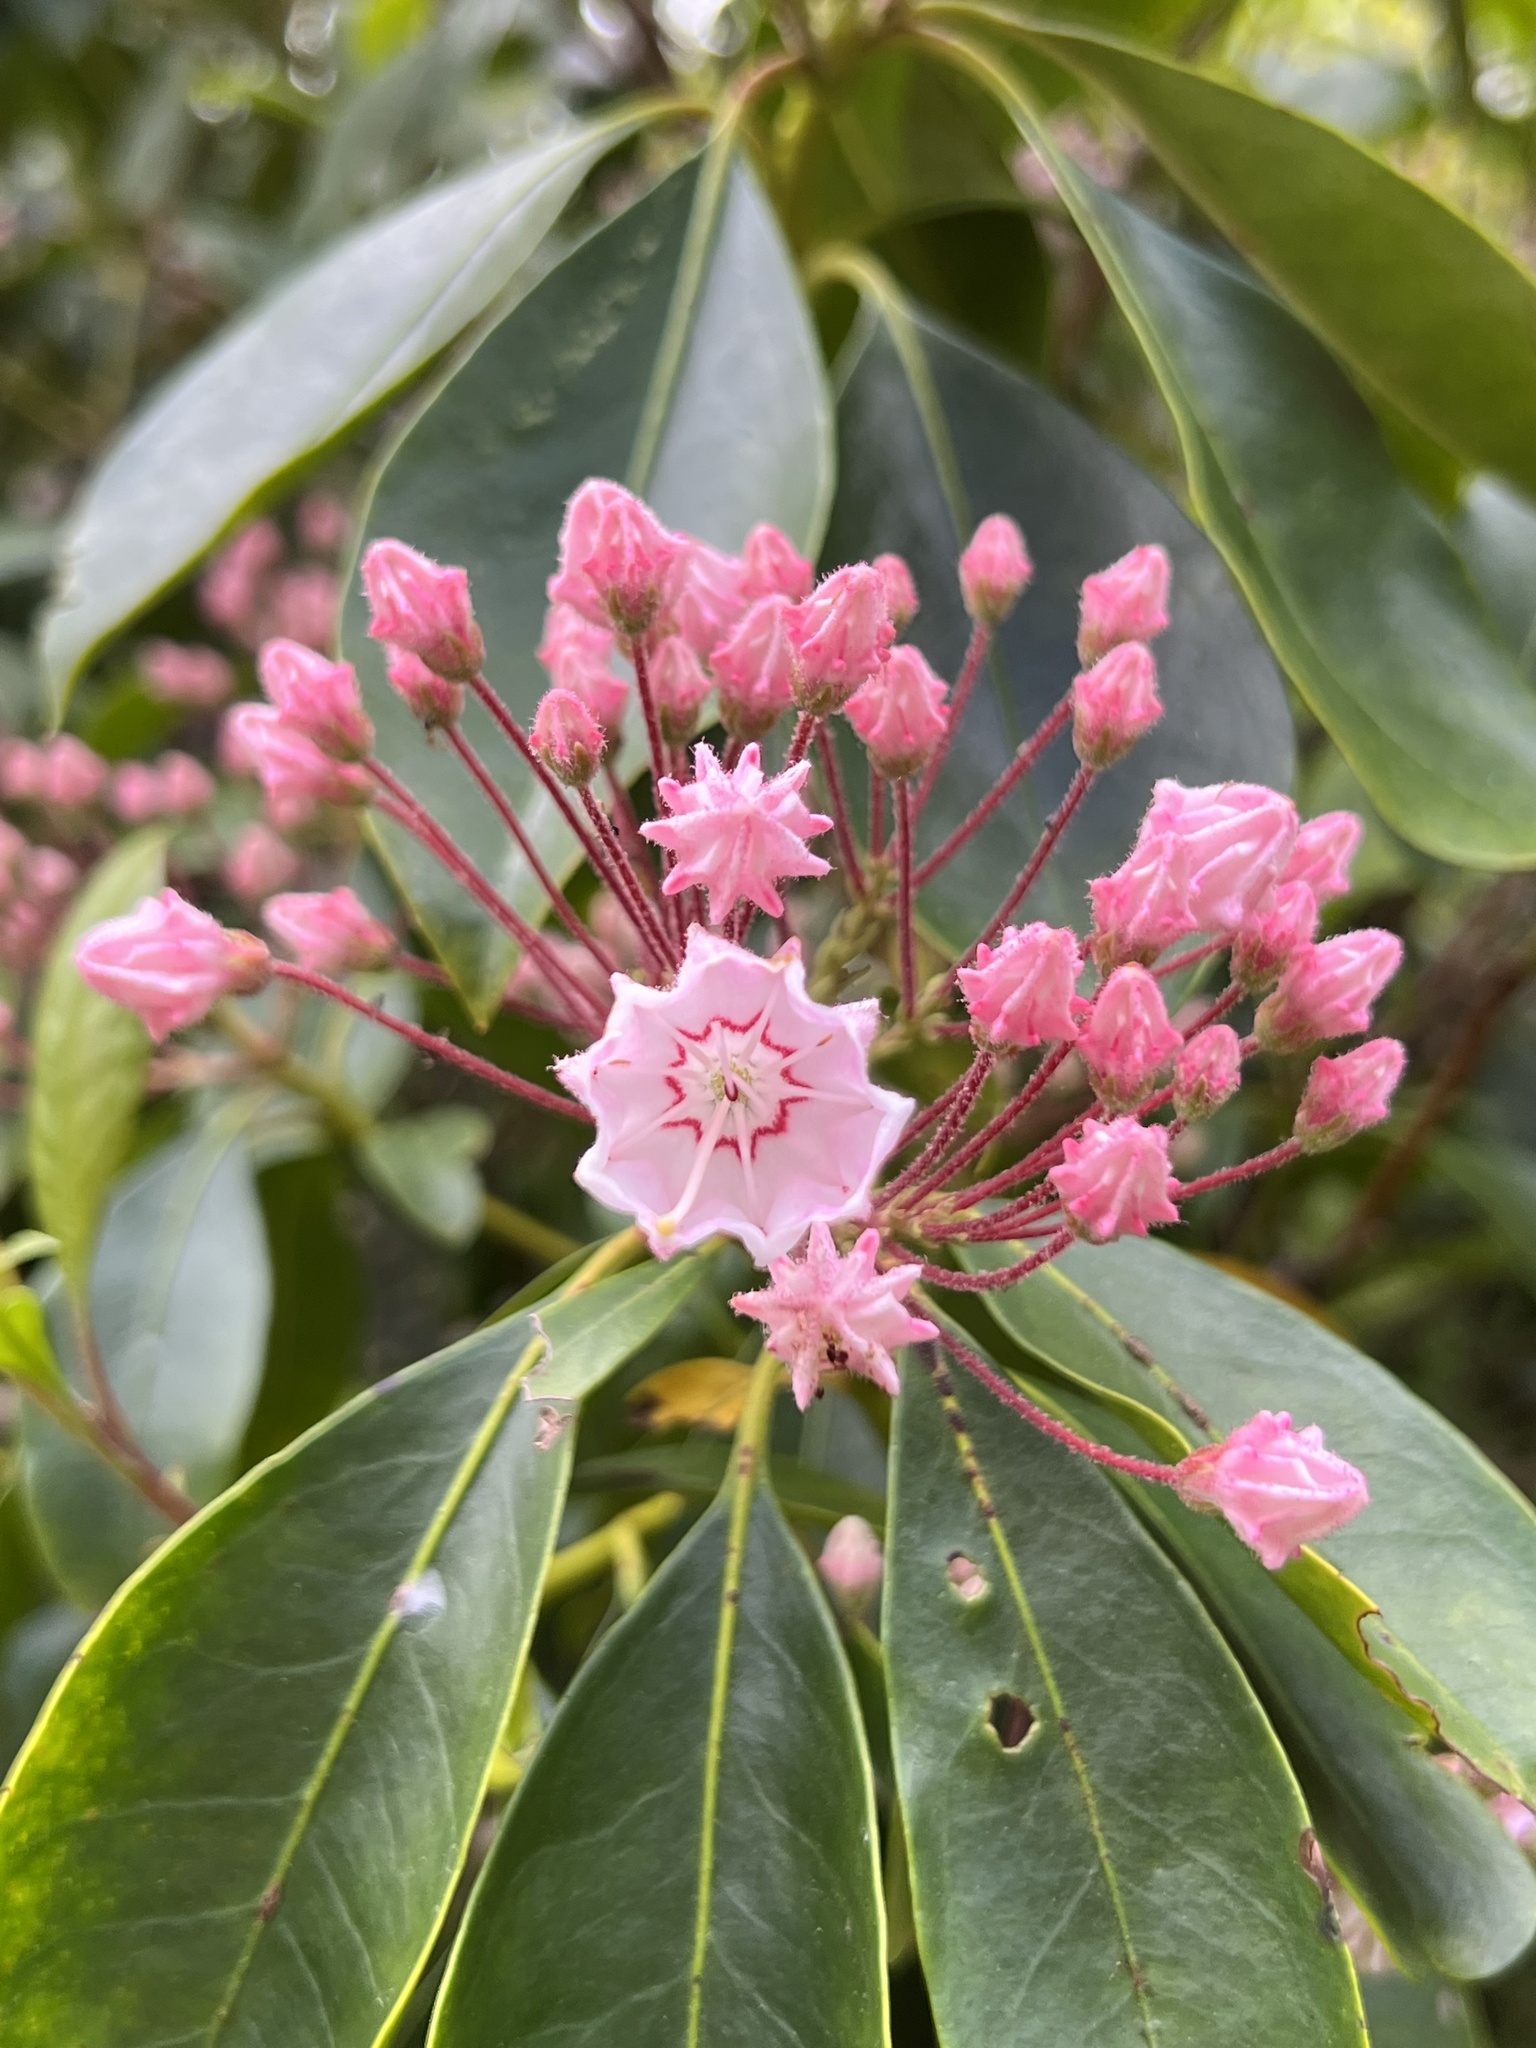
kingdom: Plantae
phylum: Tracheophyta
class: Magnoliopsida
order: Ericales
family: Ericaceae
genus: Kalmia
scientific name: Kalmia latifolia
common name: Mountain-laurel
